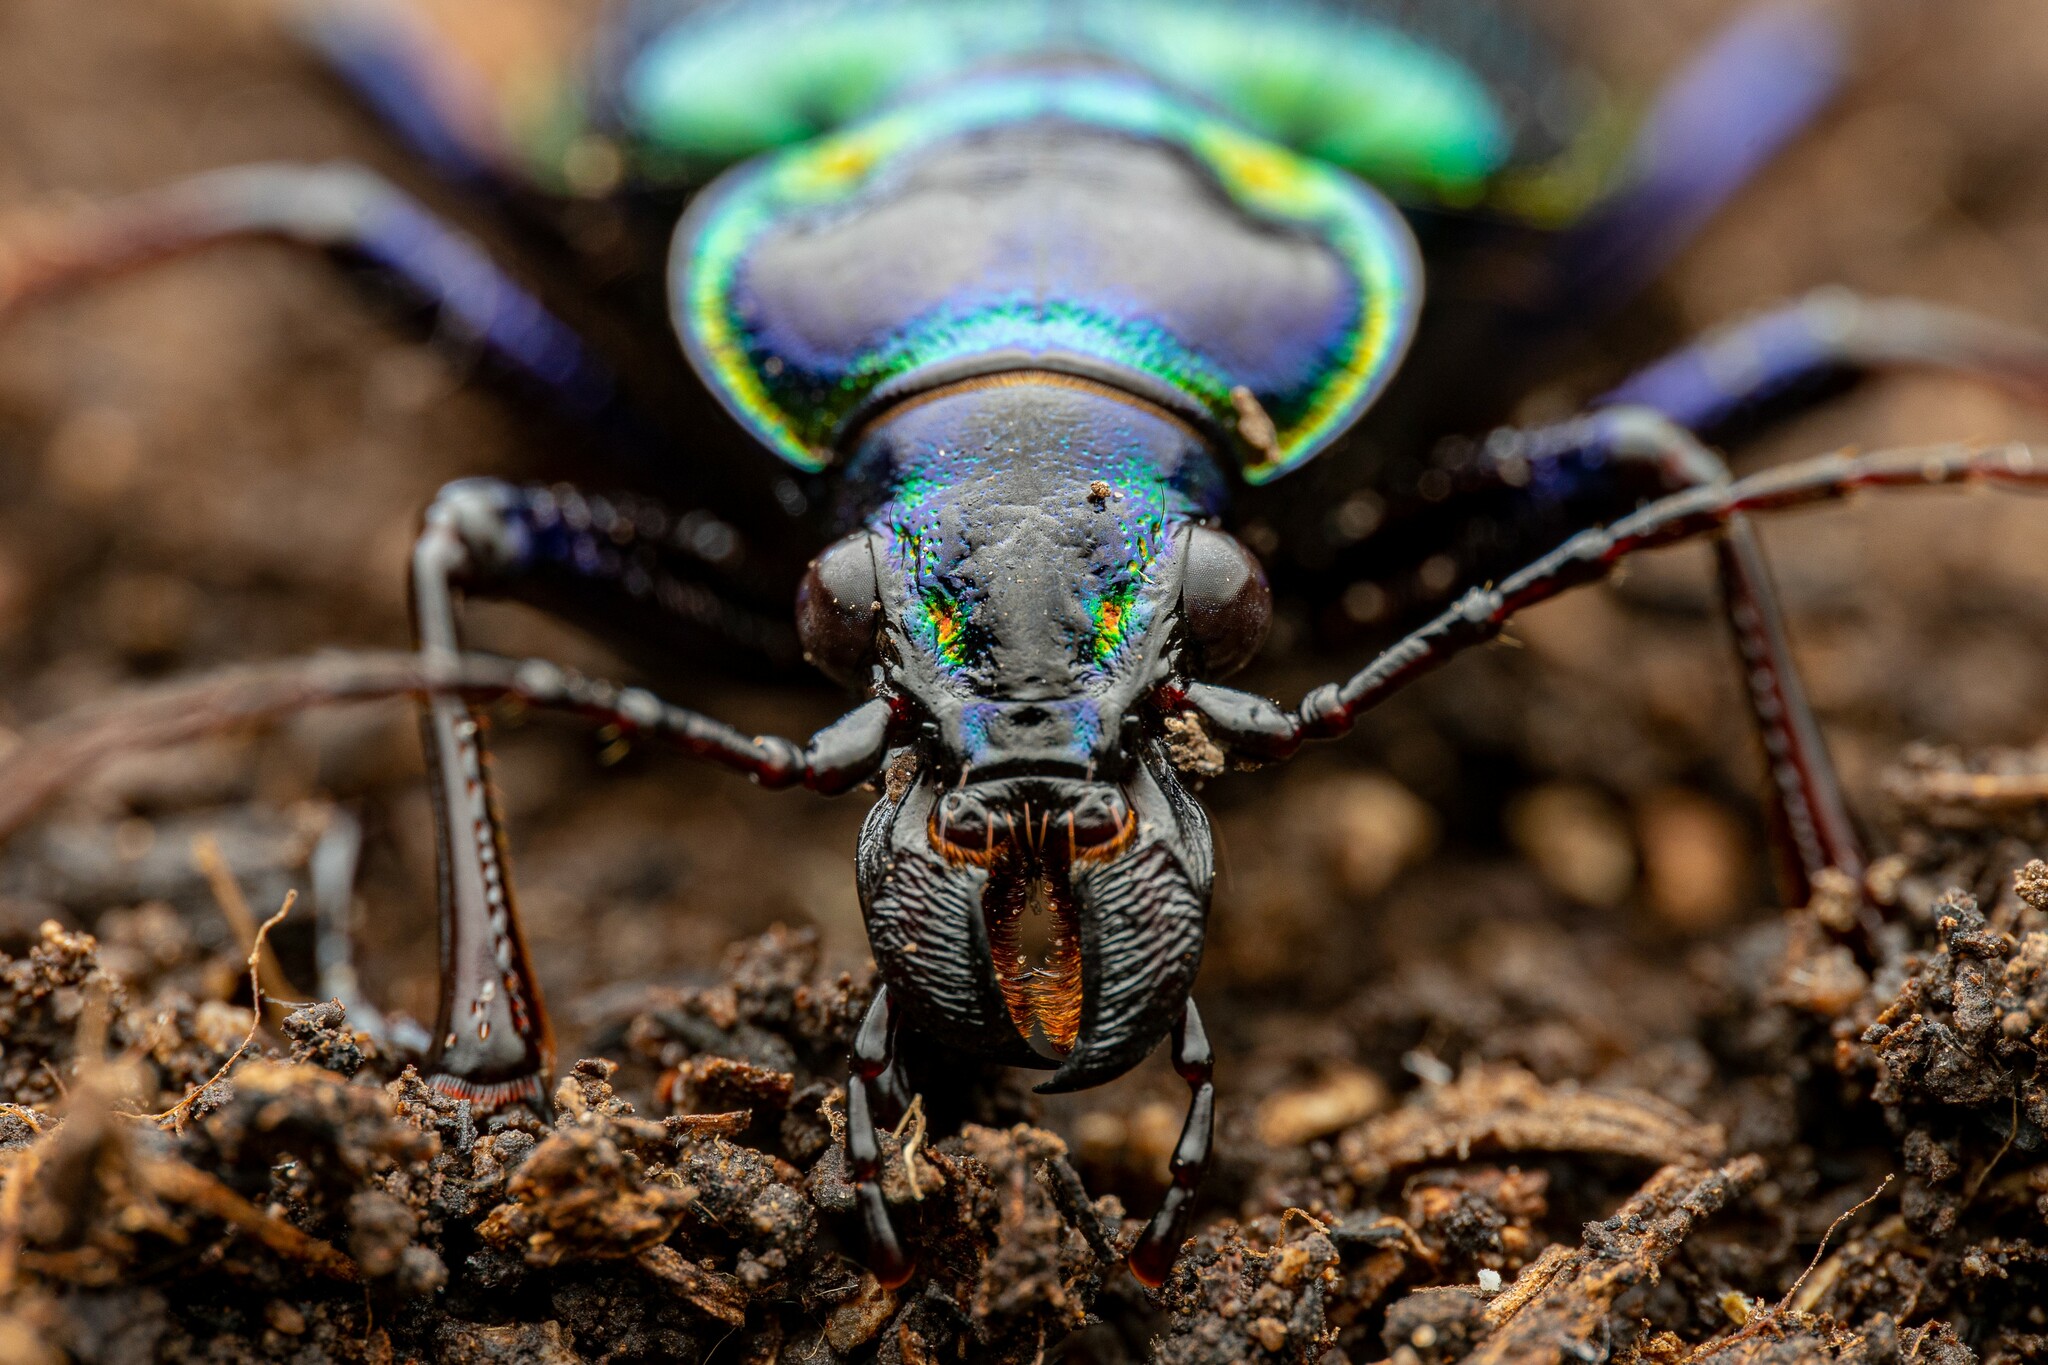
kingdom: Animalia
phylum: Arthropoda
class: Insecta
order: Coleoptera
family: Carabidae
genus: Calosoma
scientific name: Calosoma scrutator
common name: Fiery searcher beetle
